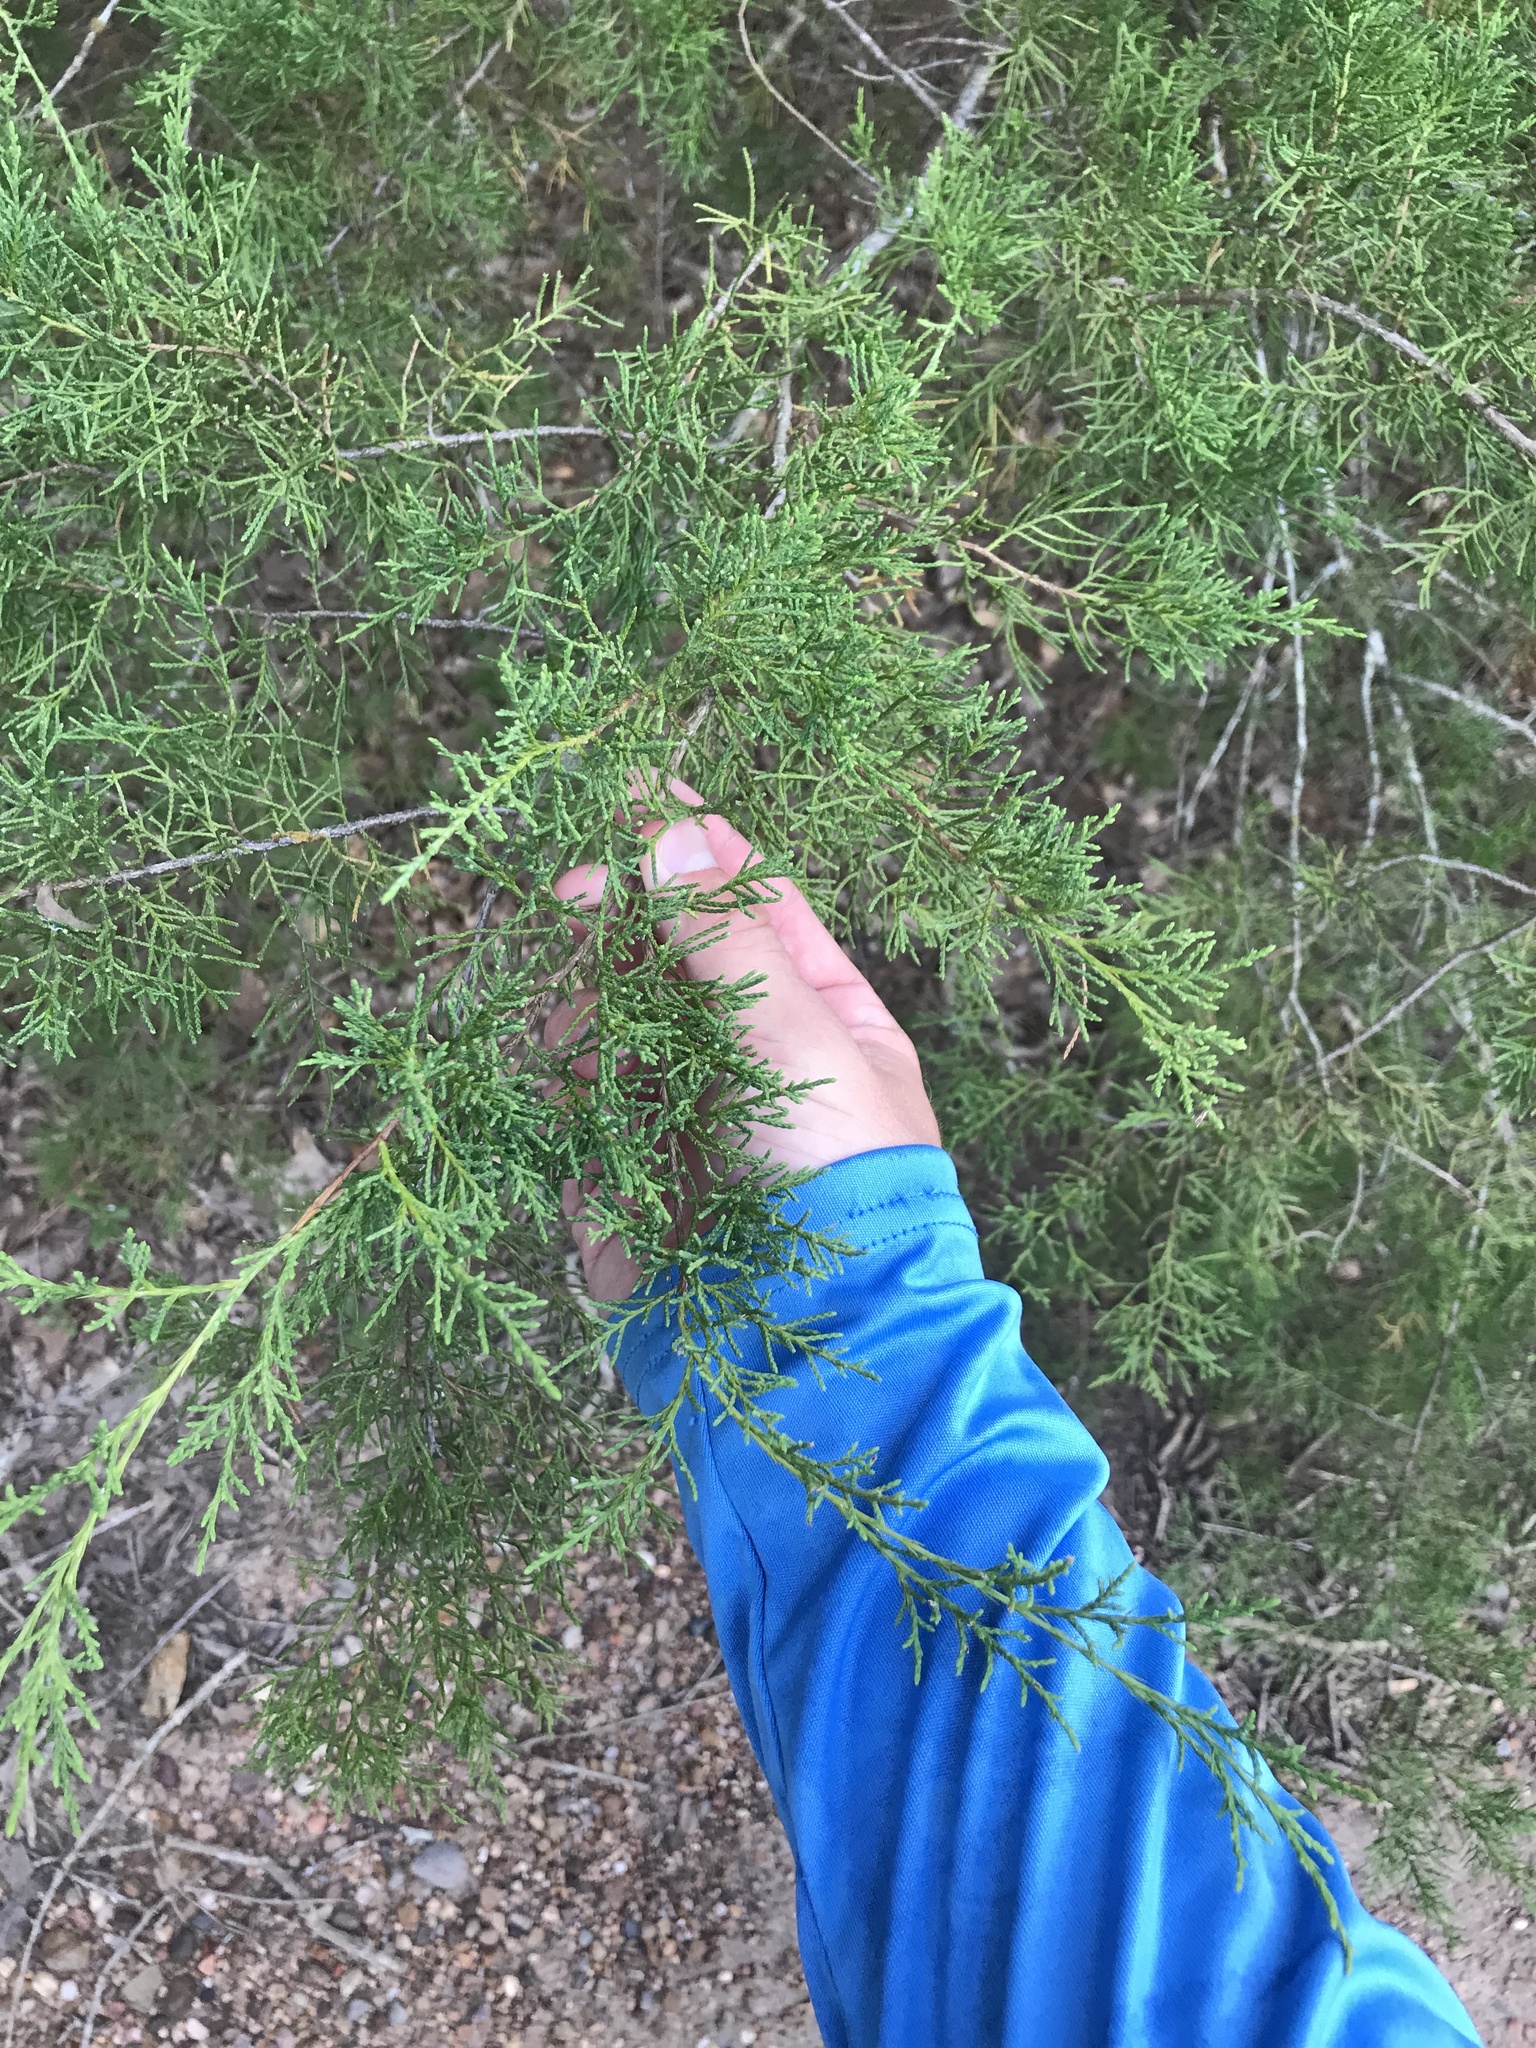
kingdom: Plantae
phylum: Tracheophyta
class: Pinopsida
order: Pinales
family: Cupressaceae
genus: Juniperus
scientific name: Juniperus virginiana
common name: Red juniper
